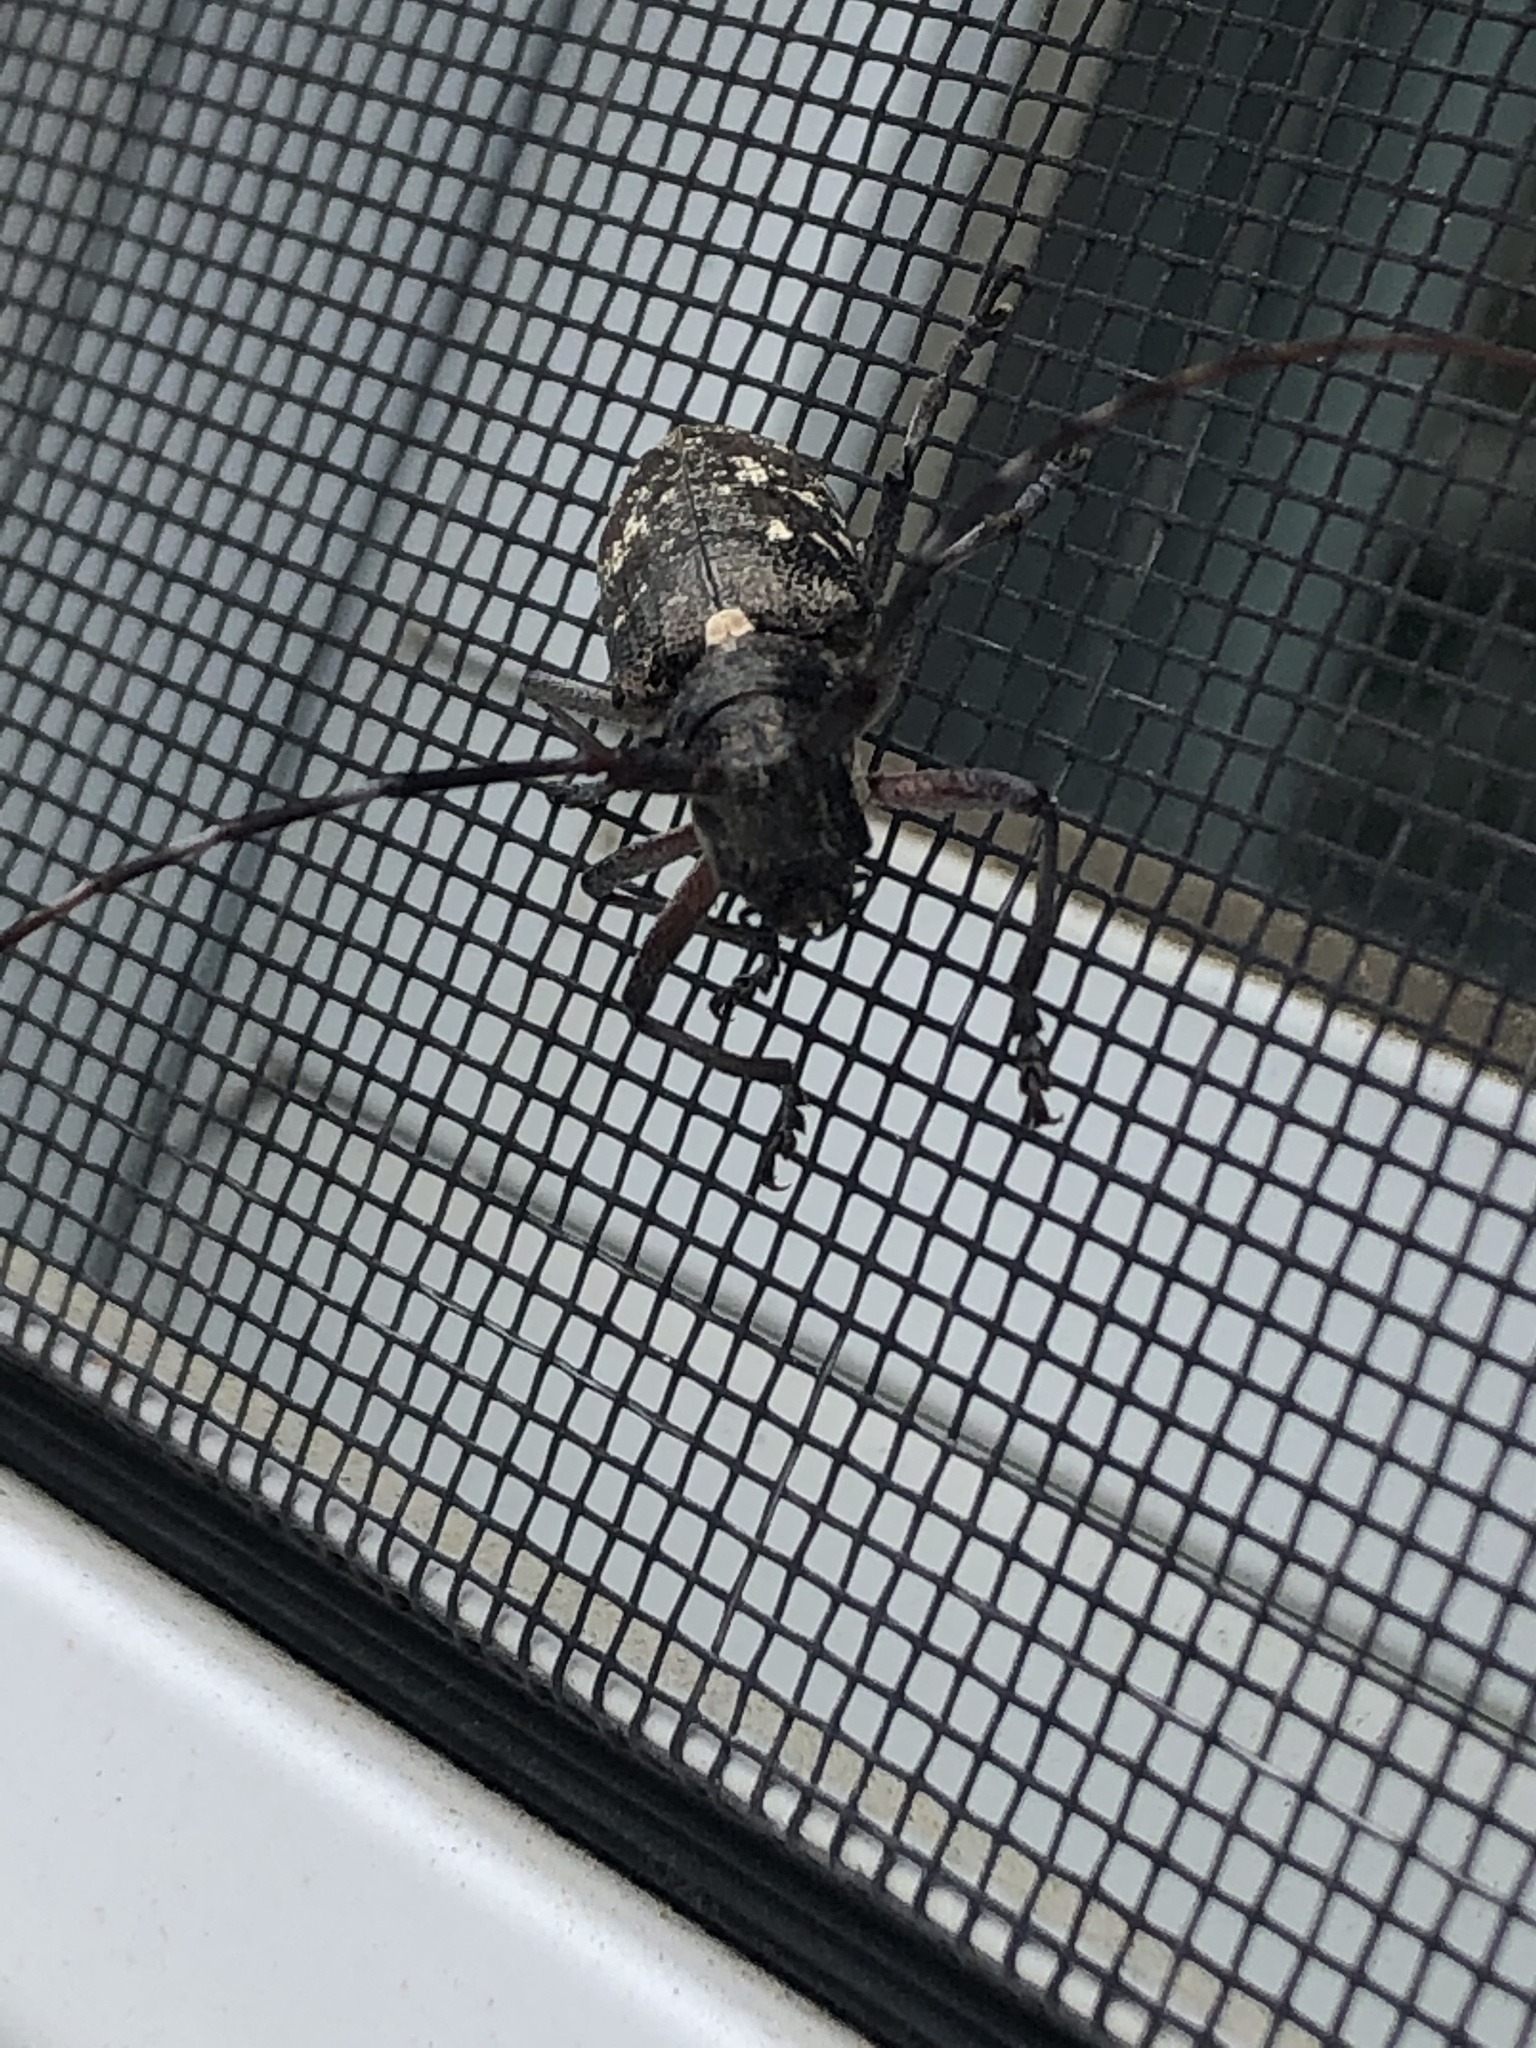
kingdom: Animalia
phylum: Arthropoda
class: Insecta
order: Coleoptera
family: Cerambycidae
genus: Monochamus
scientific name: Monochamus scutellatus
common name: White-spotted sawyer beetle
